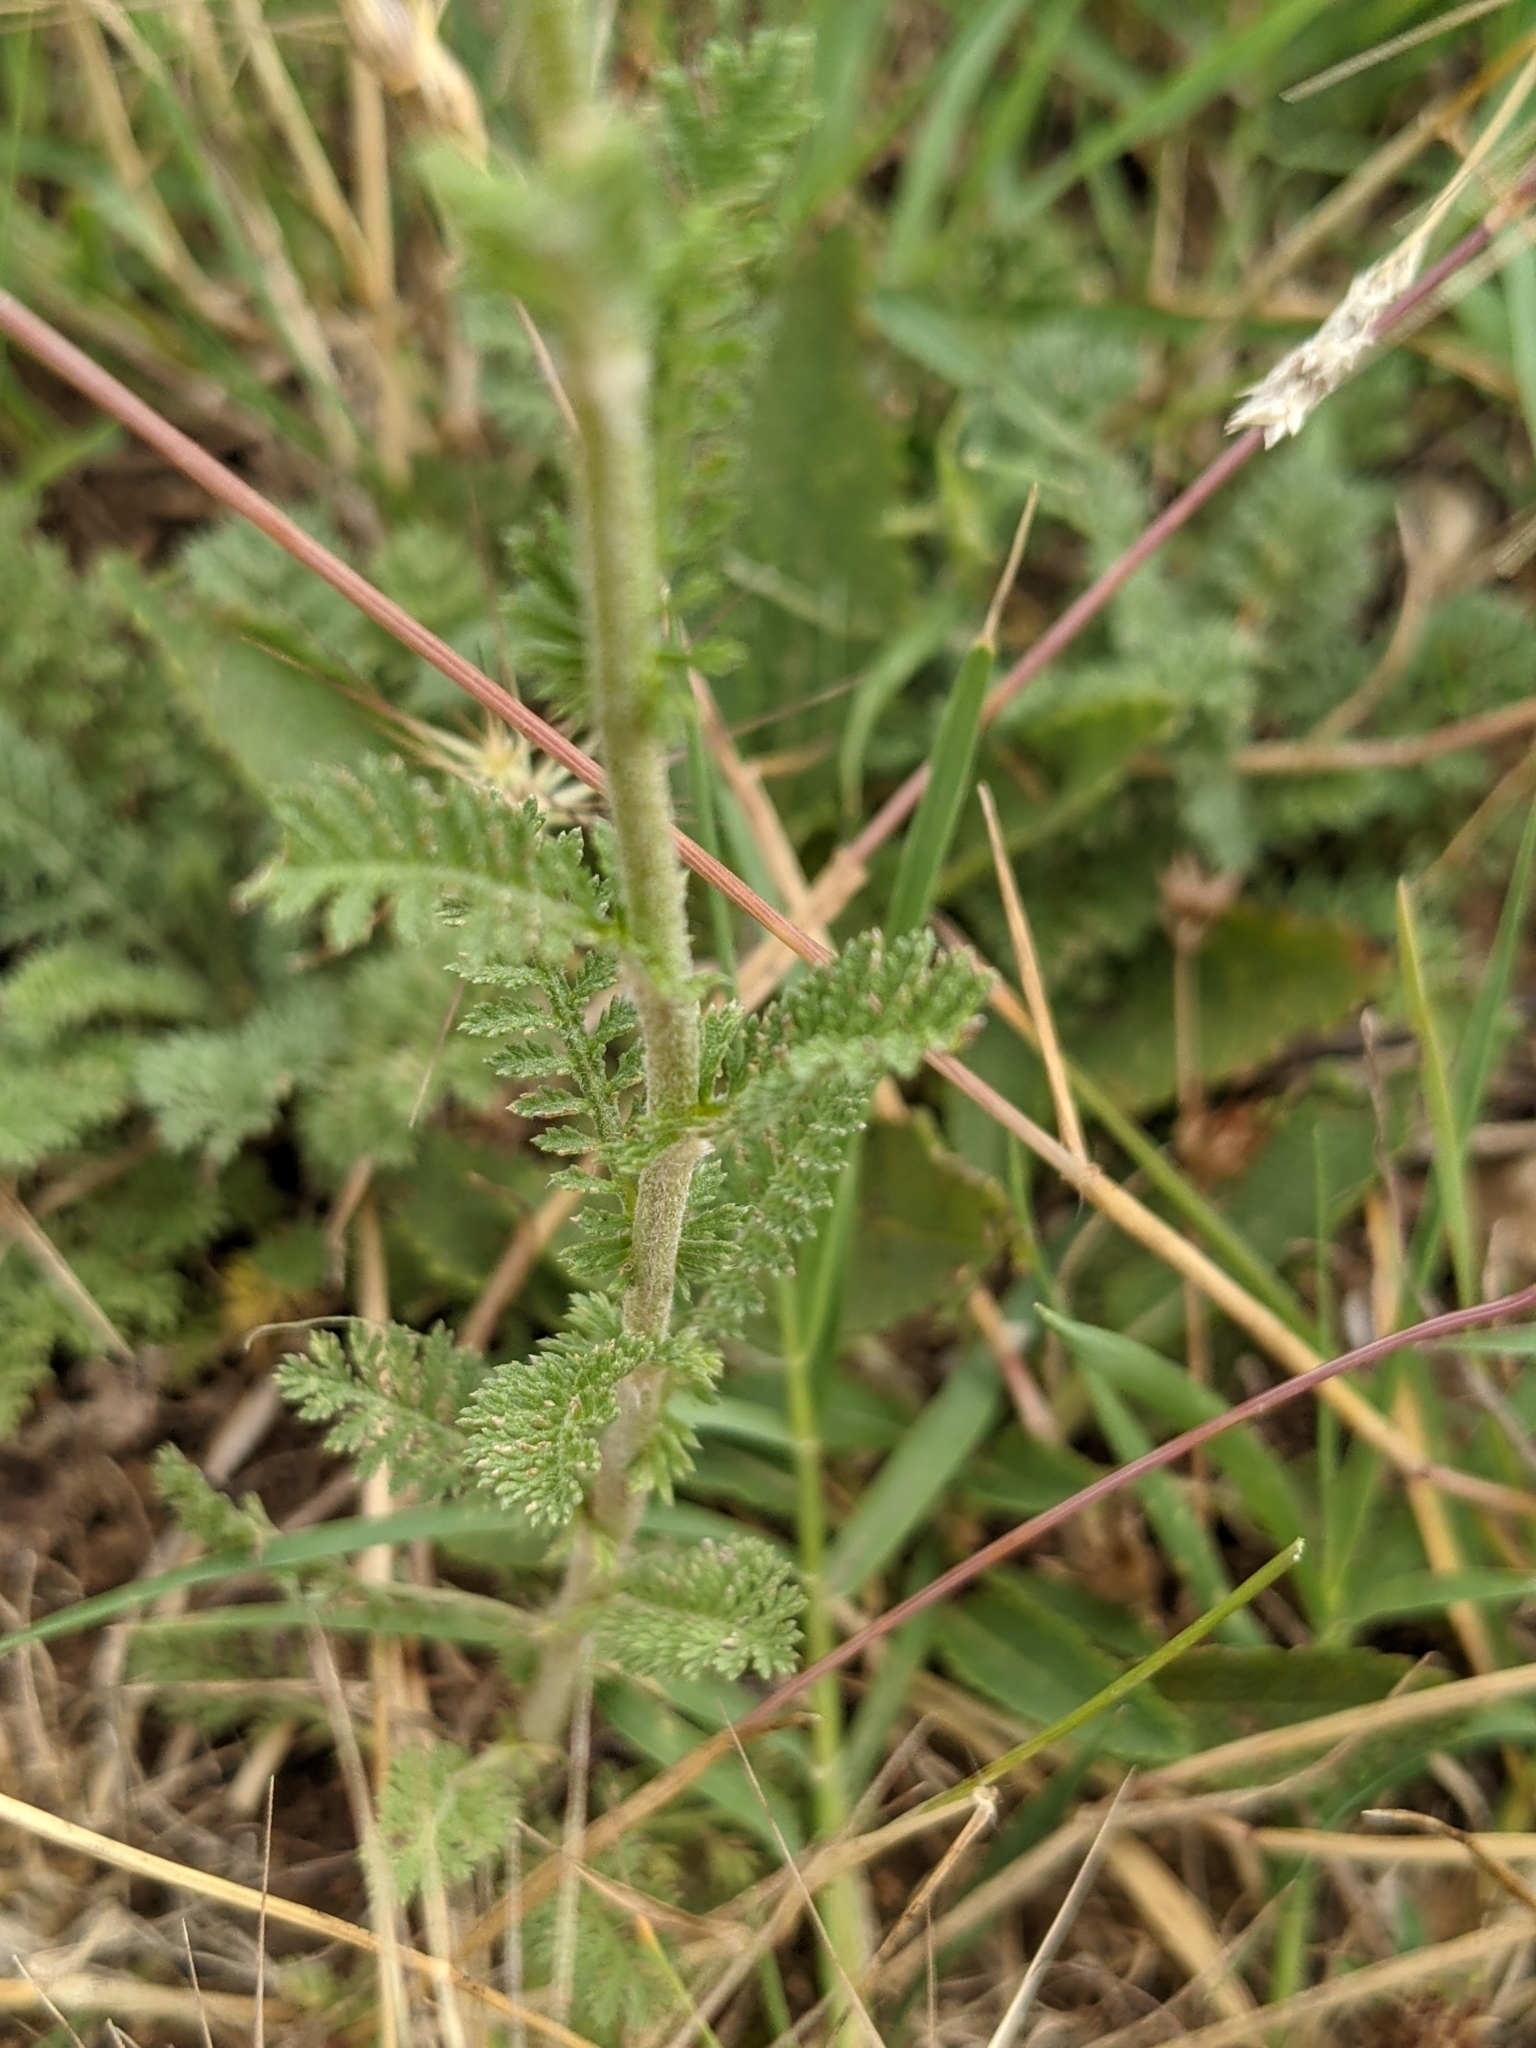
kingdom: Plantae
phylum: Tracheophyta
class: Magnoliopsida
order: Asterales
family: Asteraceae
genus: Achillea
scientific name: Achillea odorata
